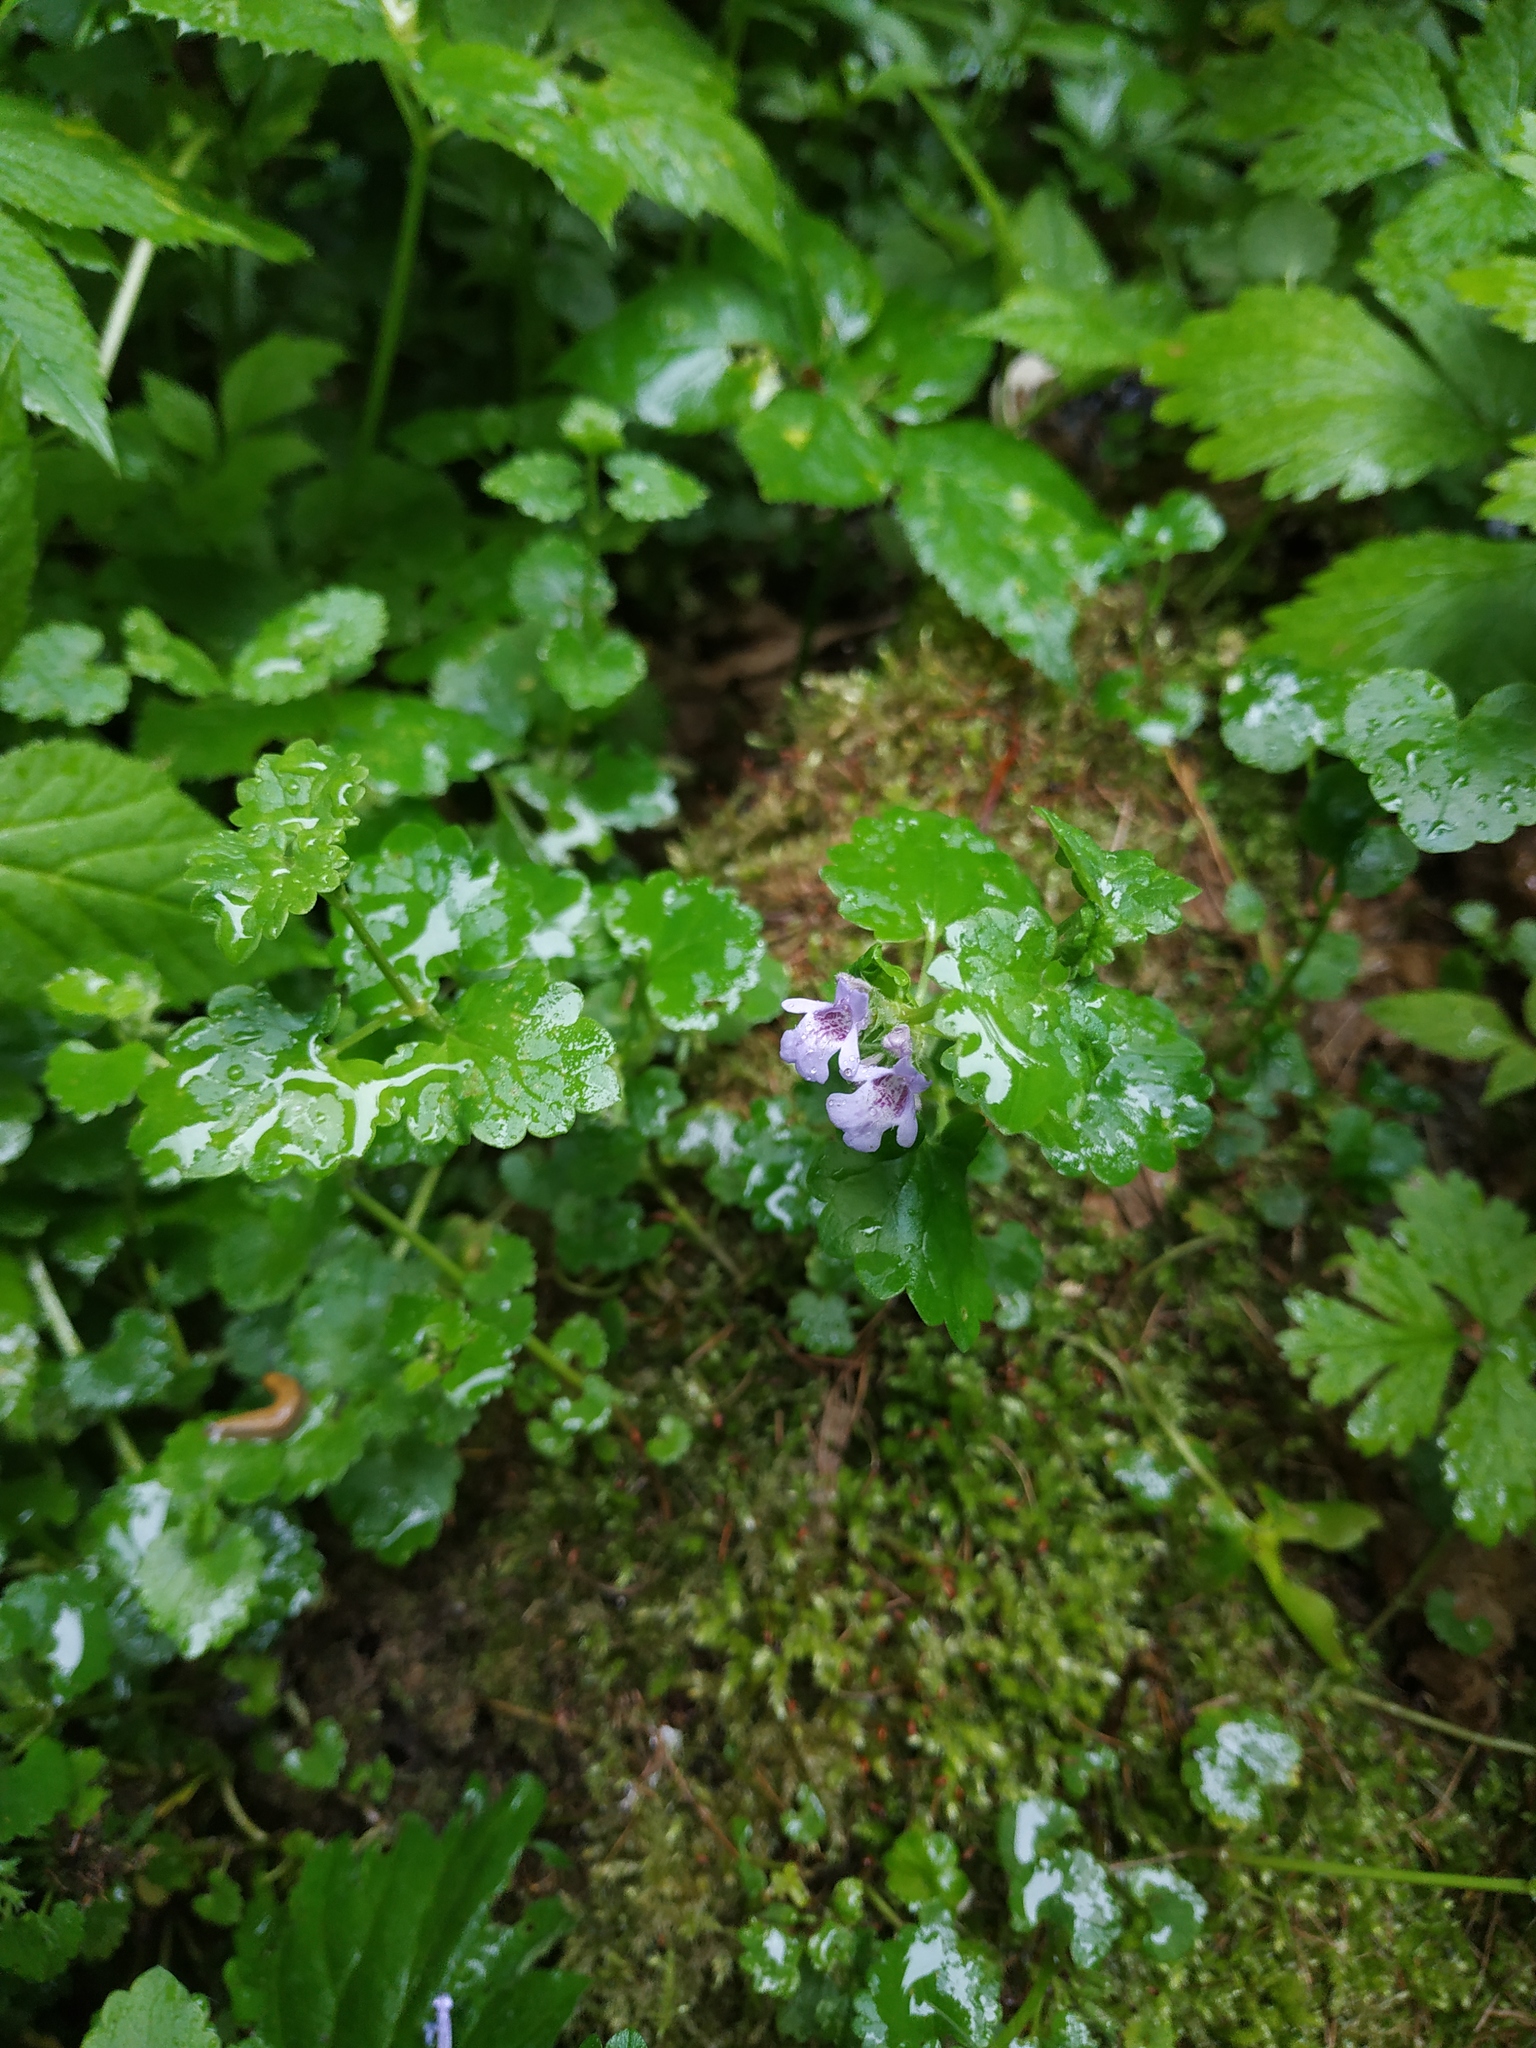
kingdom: Plantae
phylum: Tracheophyta
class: Magnoliopsida
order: Lamiales
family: Lamiaceae
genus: Glechoma
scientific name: Glechoma hederacea
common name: Ground ivy
